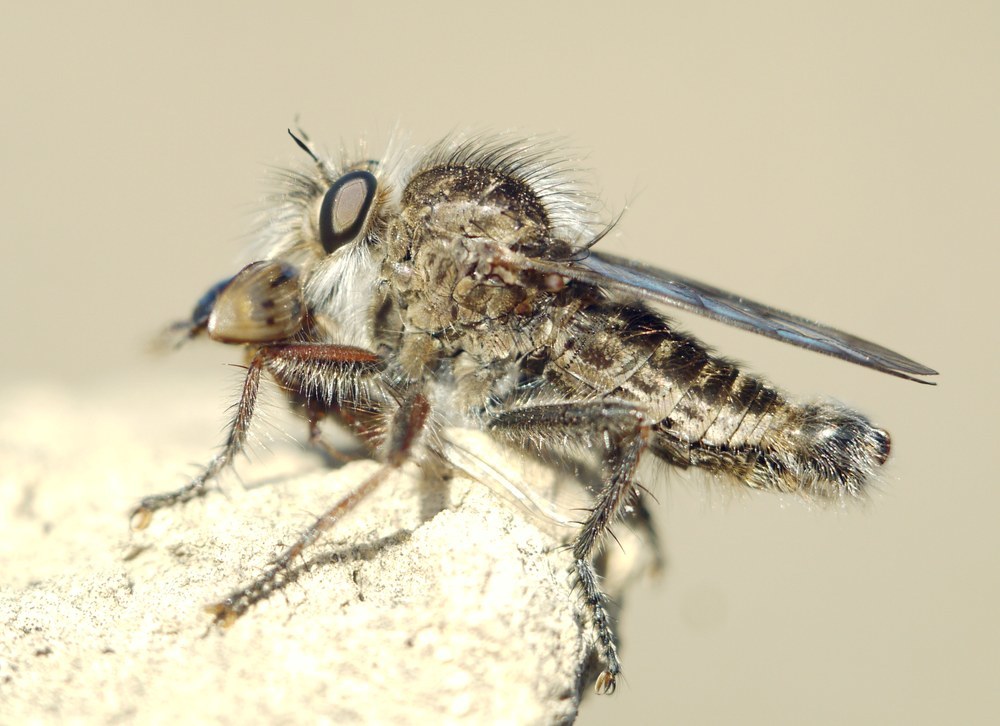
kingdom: Animalia
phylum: Arthropoda
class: Insecta
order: Diptera
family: Asilidae
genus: Erax
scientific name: Erax crassicauda
